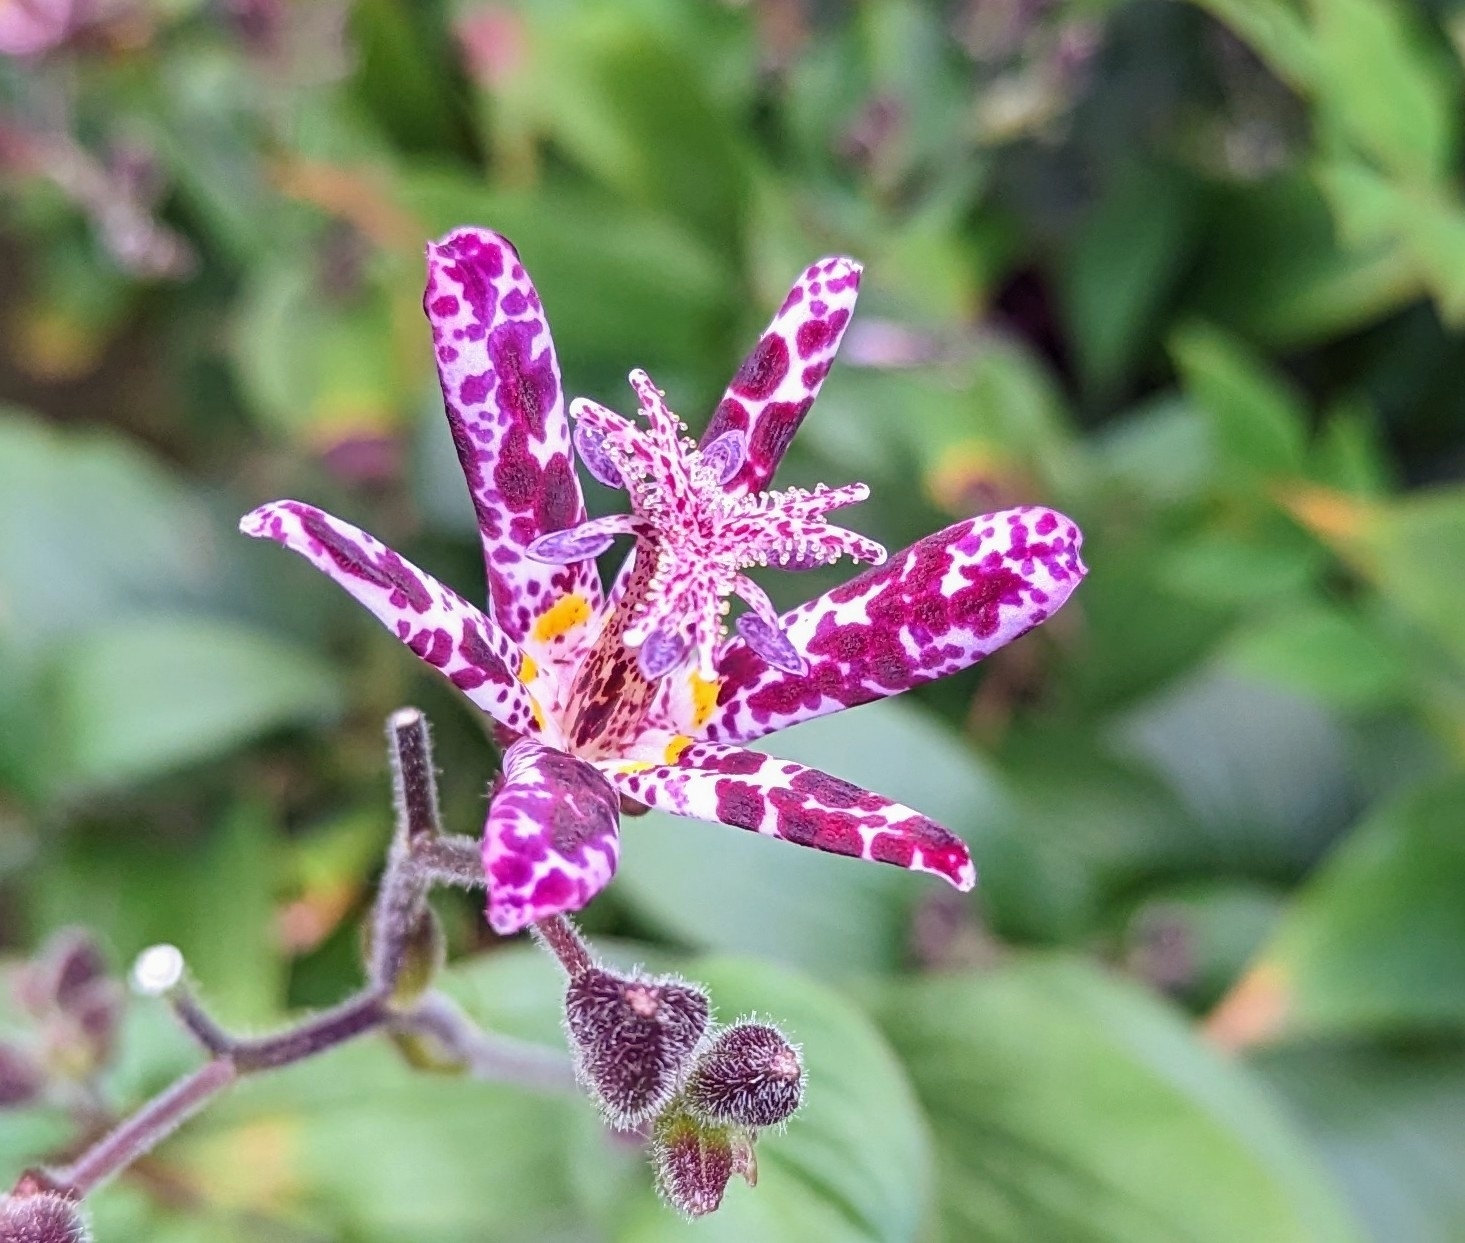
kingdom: Plantae
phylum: Tracheophyta
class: Liliopsida
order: Liliales
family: Liliaceae
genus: Tricyrtis
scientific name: Tricyrtis hirta
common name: Toadlily
